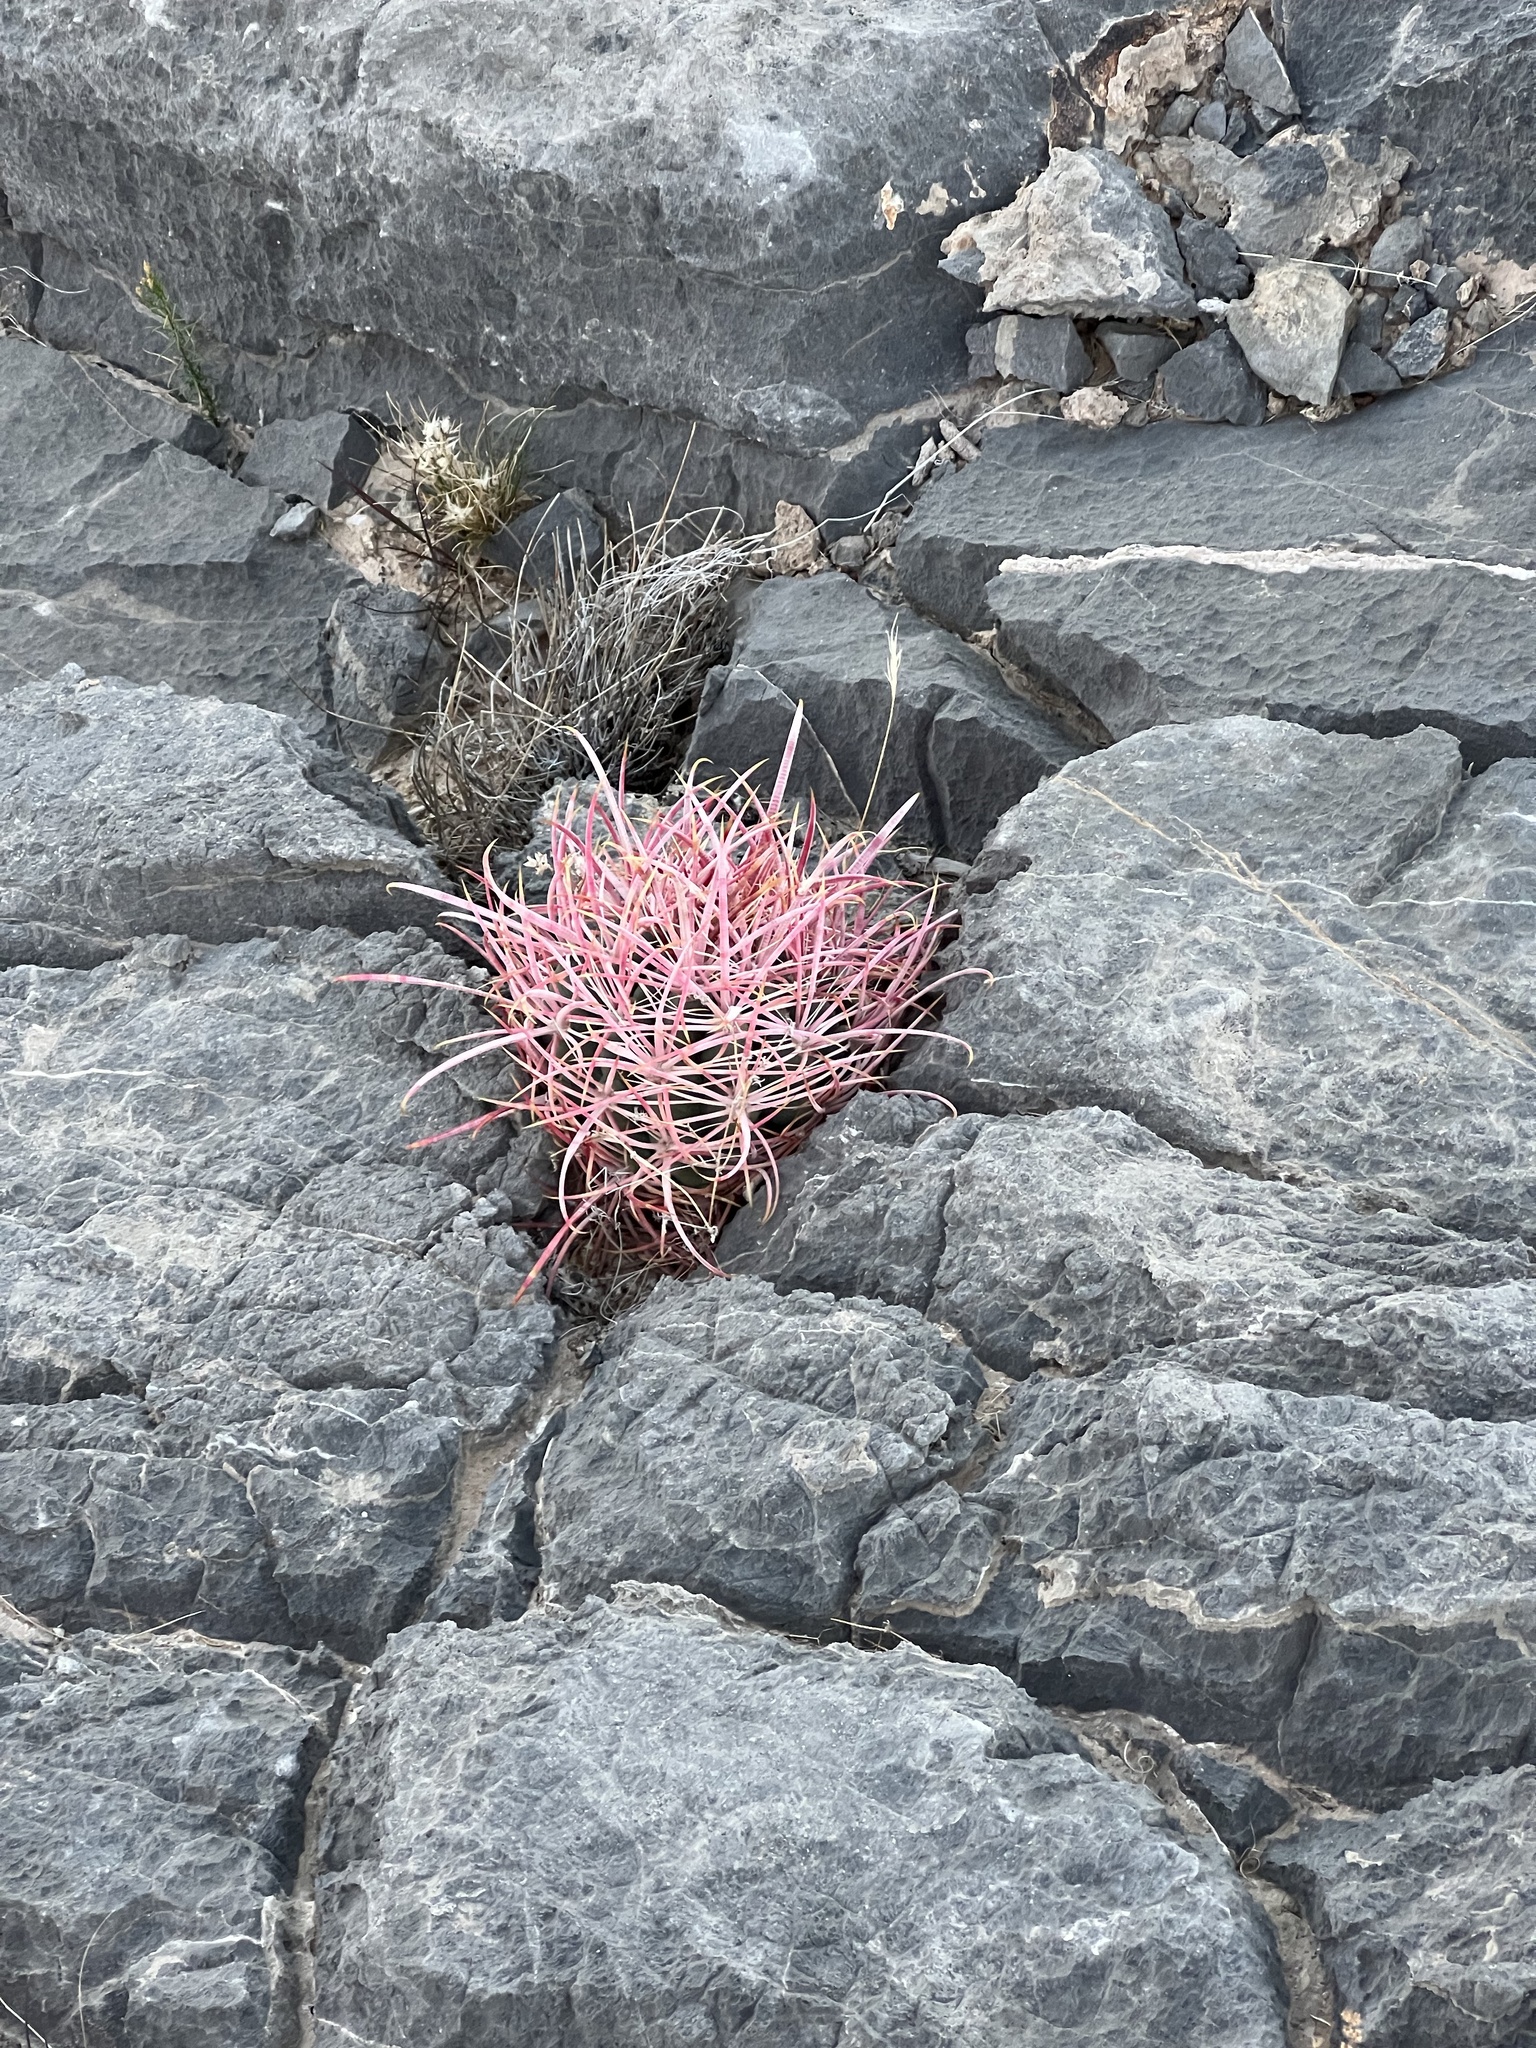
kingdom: Plantae
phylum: Tracheophyta
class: Magnoliopsida
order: Caryophyllales
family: Cactaceae
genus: Ferocactus
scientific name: Ferocactus cylindraceus
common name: California barrel cactus
